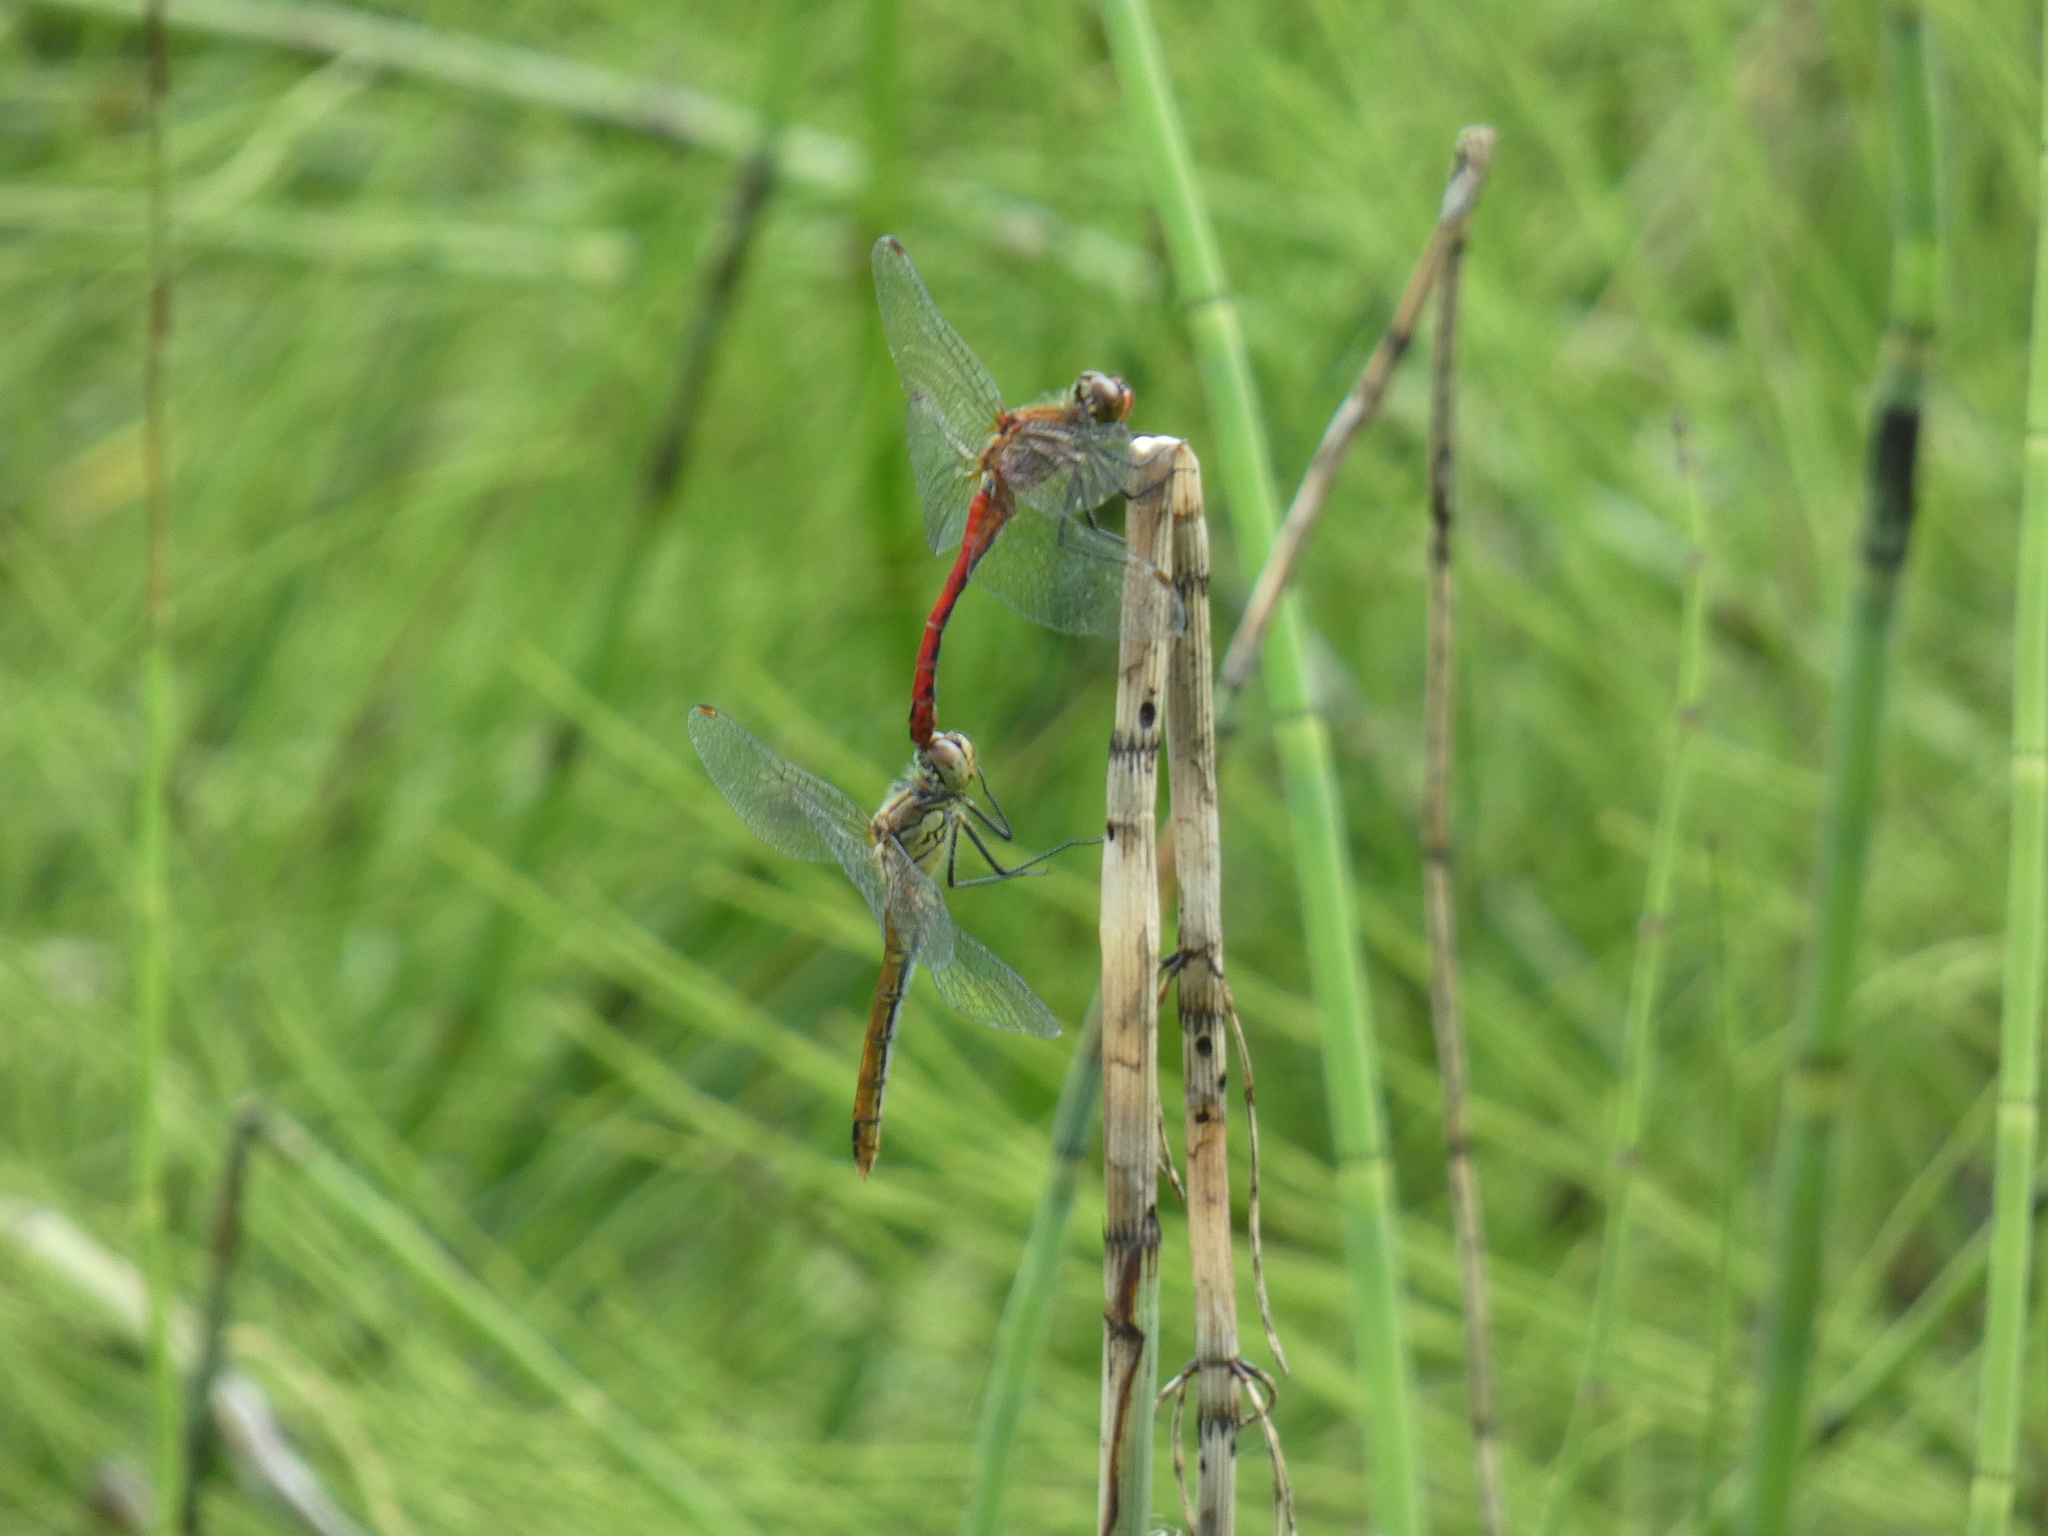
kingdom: Animalia
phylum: Arthropoda
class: Insecta
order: Odonata
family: Libellulidae
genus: Sympetrum
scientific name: Sympetrum sanguineum
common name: Ruddy darter
